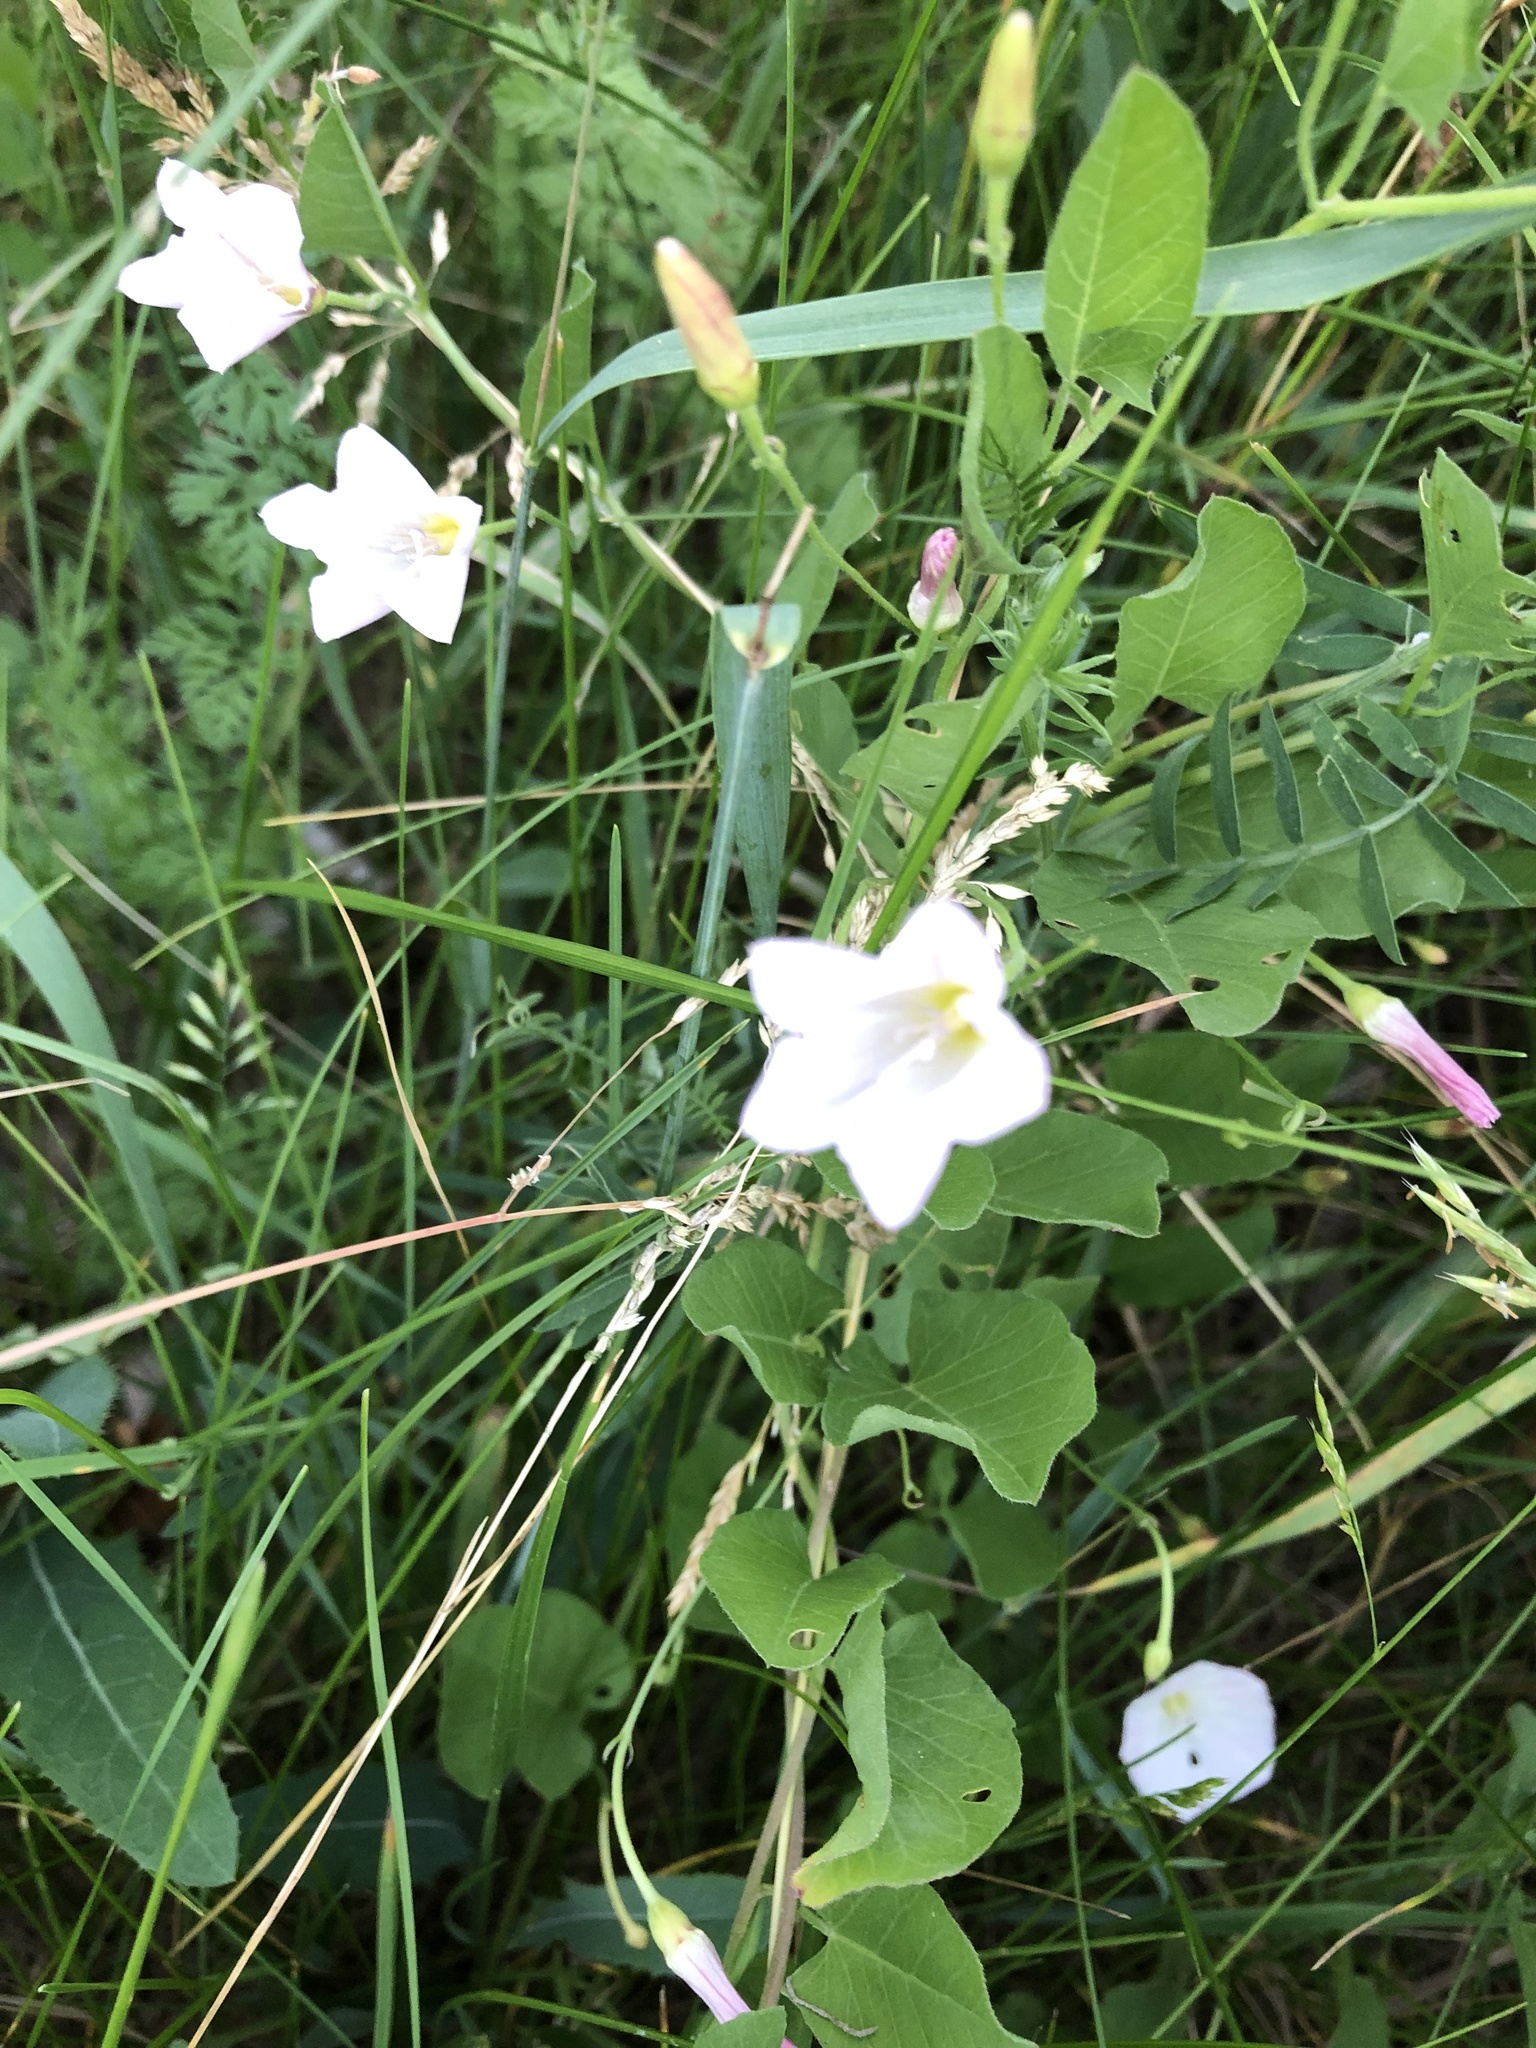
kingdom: Plantae
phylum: Tracheophyta
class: Magnoliopsida
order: Solanales
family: Convolvulaceae
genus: Convolvulus
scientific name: Convolvulus arvensis
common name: Field bindweed
